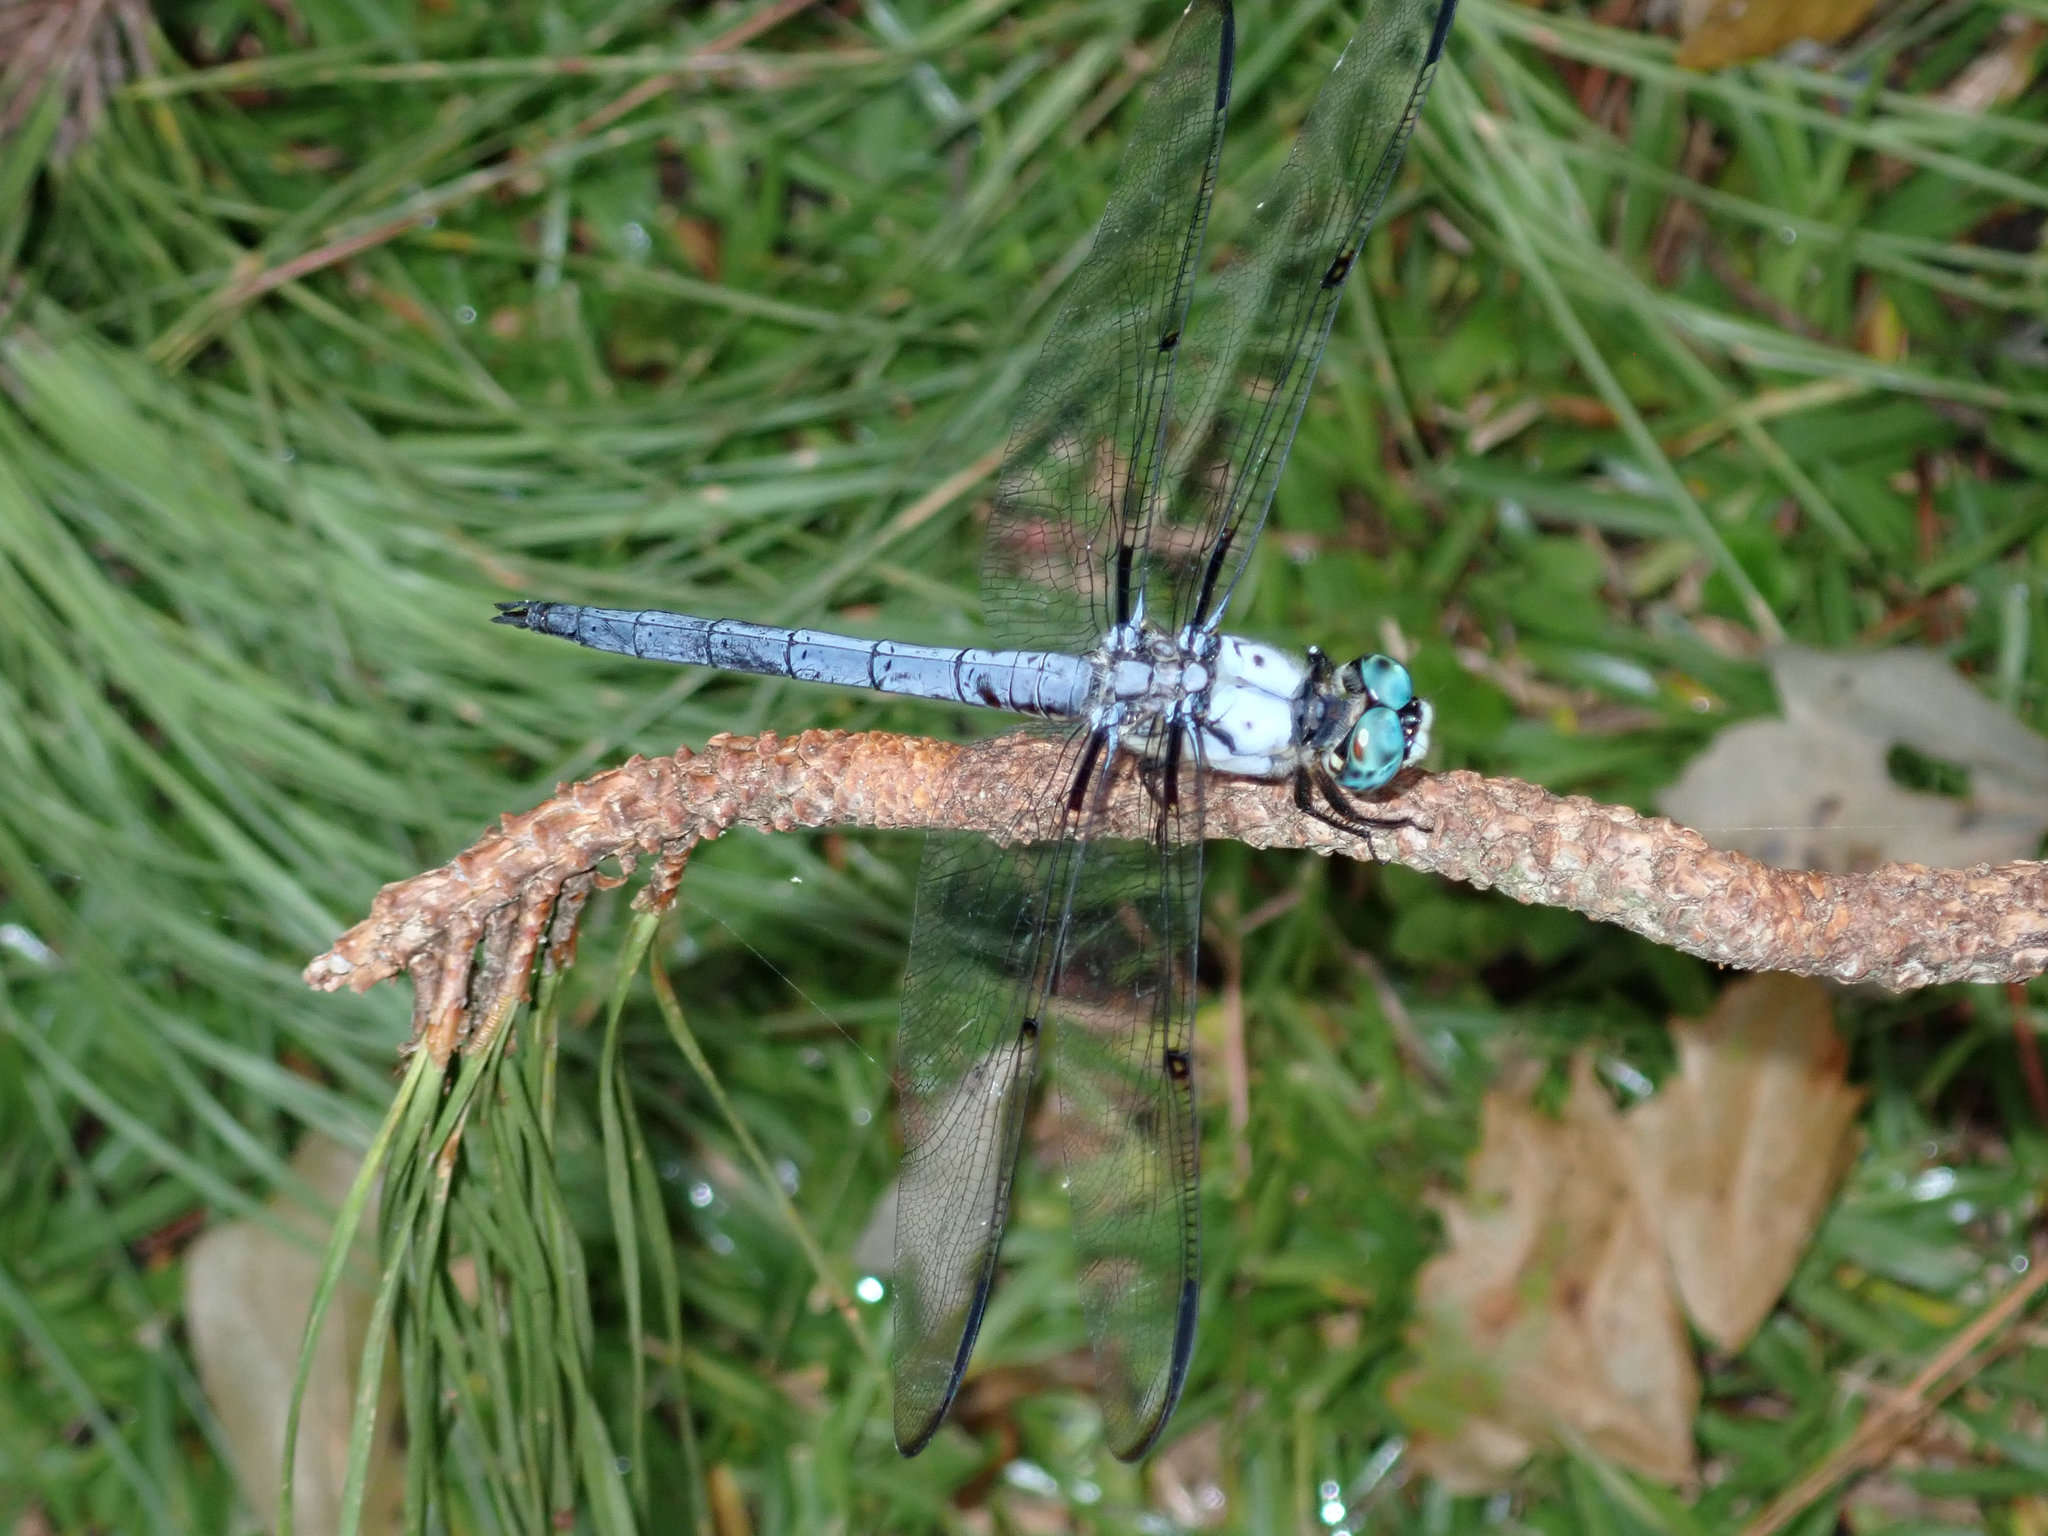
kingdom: Animalia
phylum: Arthropoda
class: Insecta
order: Odonata
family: Libellulidae
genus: Libellula
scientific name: Libellula vibrans
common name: Great blue skimmer
